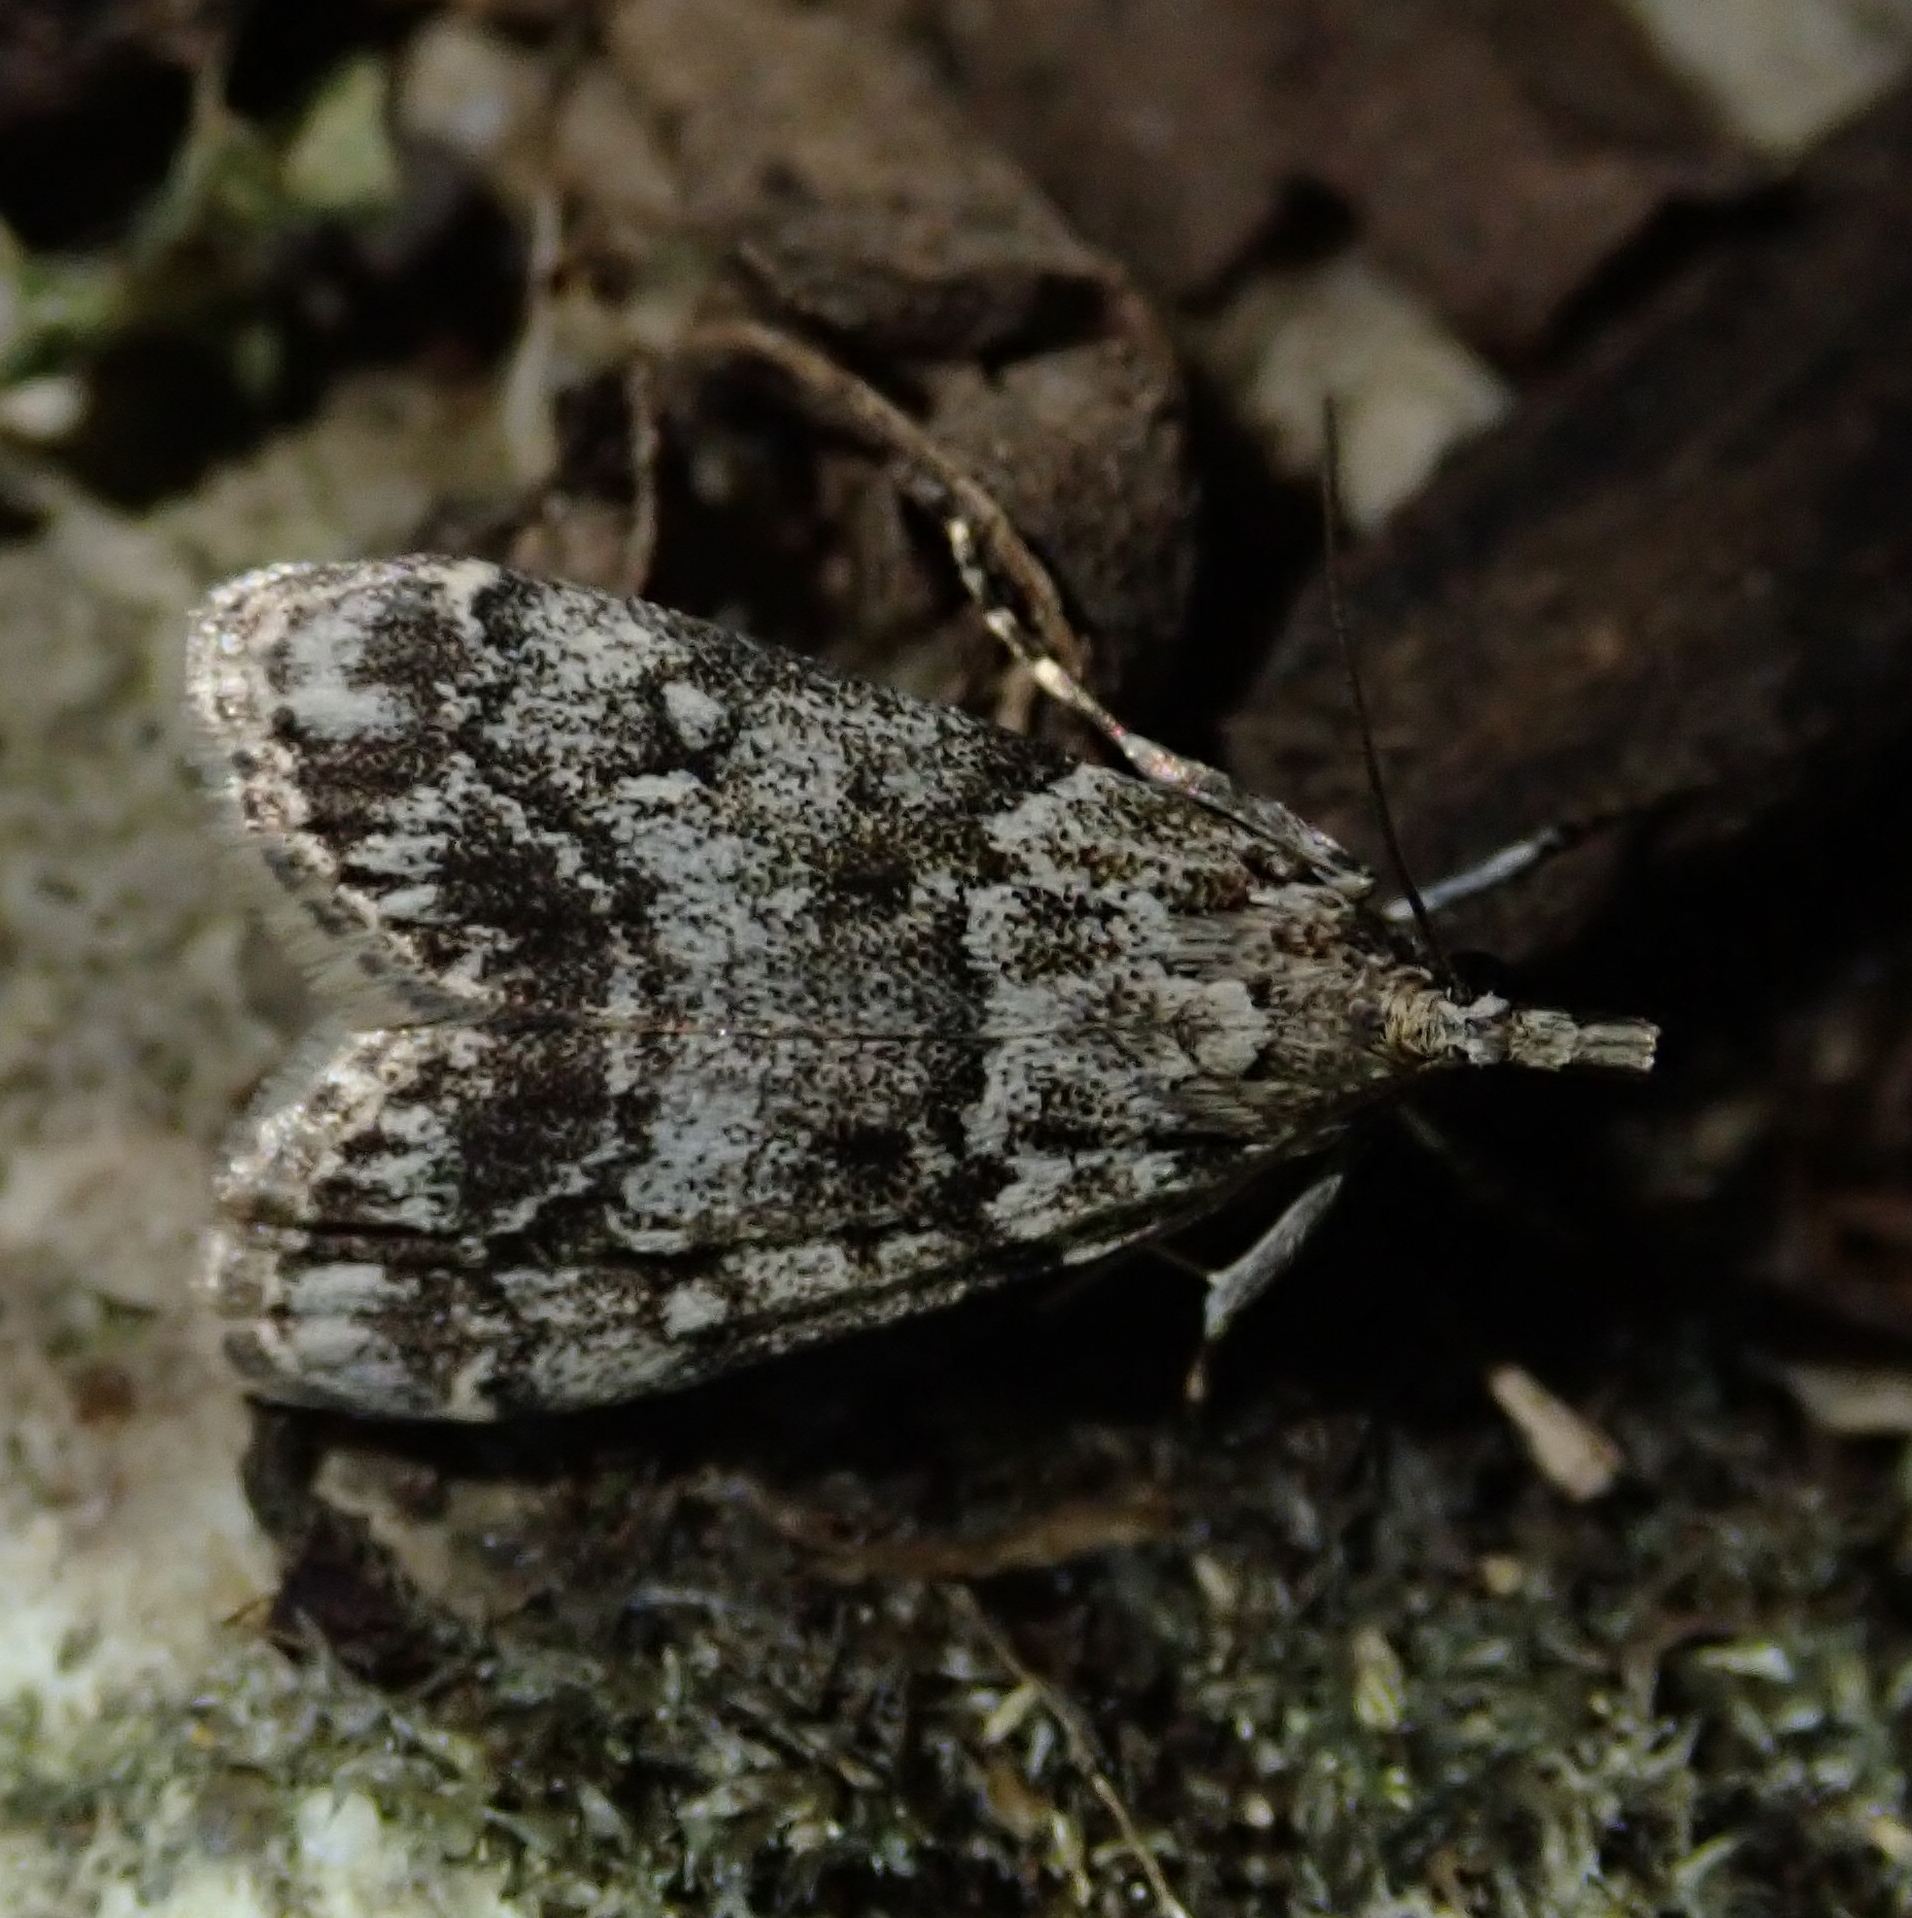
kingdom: Animalia
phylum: Arthropoda
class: Insecta
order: Lepidoptera
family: Crambidae
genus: Eudonia
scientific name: Eudonia lacustrata
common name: Little grey
